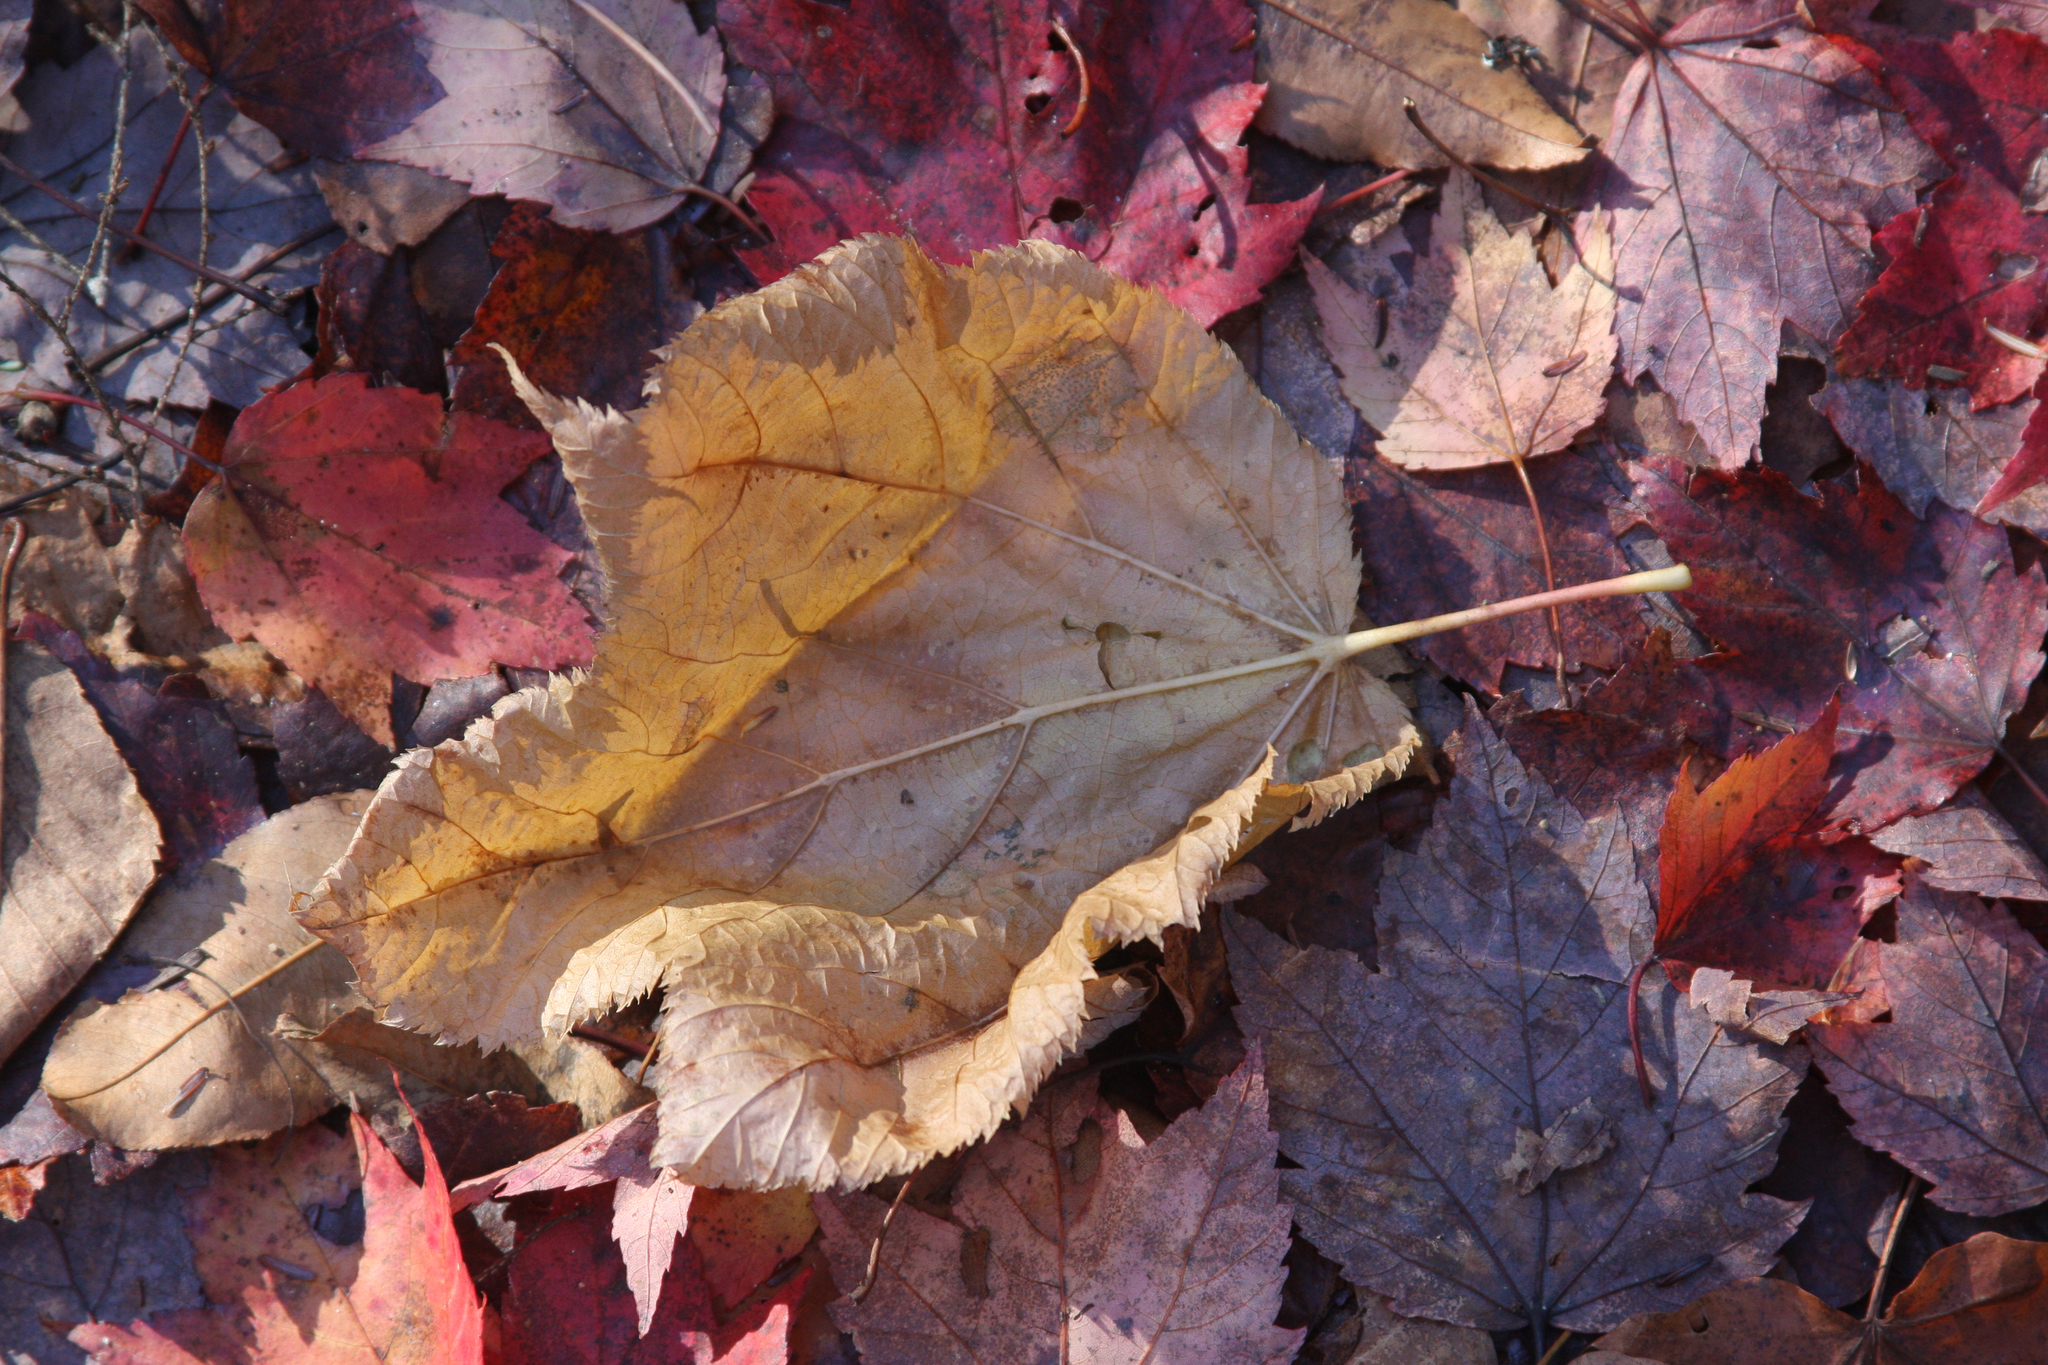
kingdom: Plantae
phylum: Tracheophyta
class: Magnoliopsida
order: Sapindales
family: Sapindaceae
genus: Acer
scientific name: Acer pensylvanicum
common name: Moosewood
